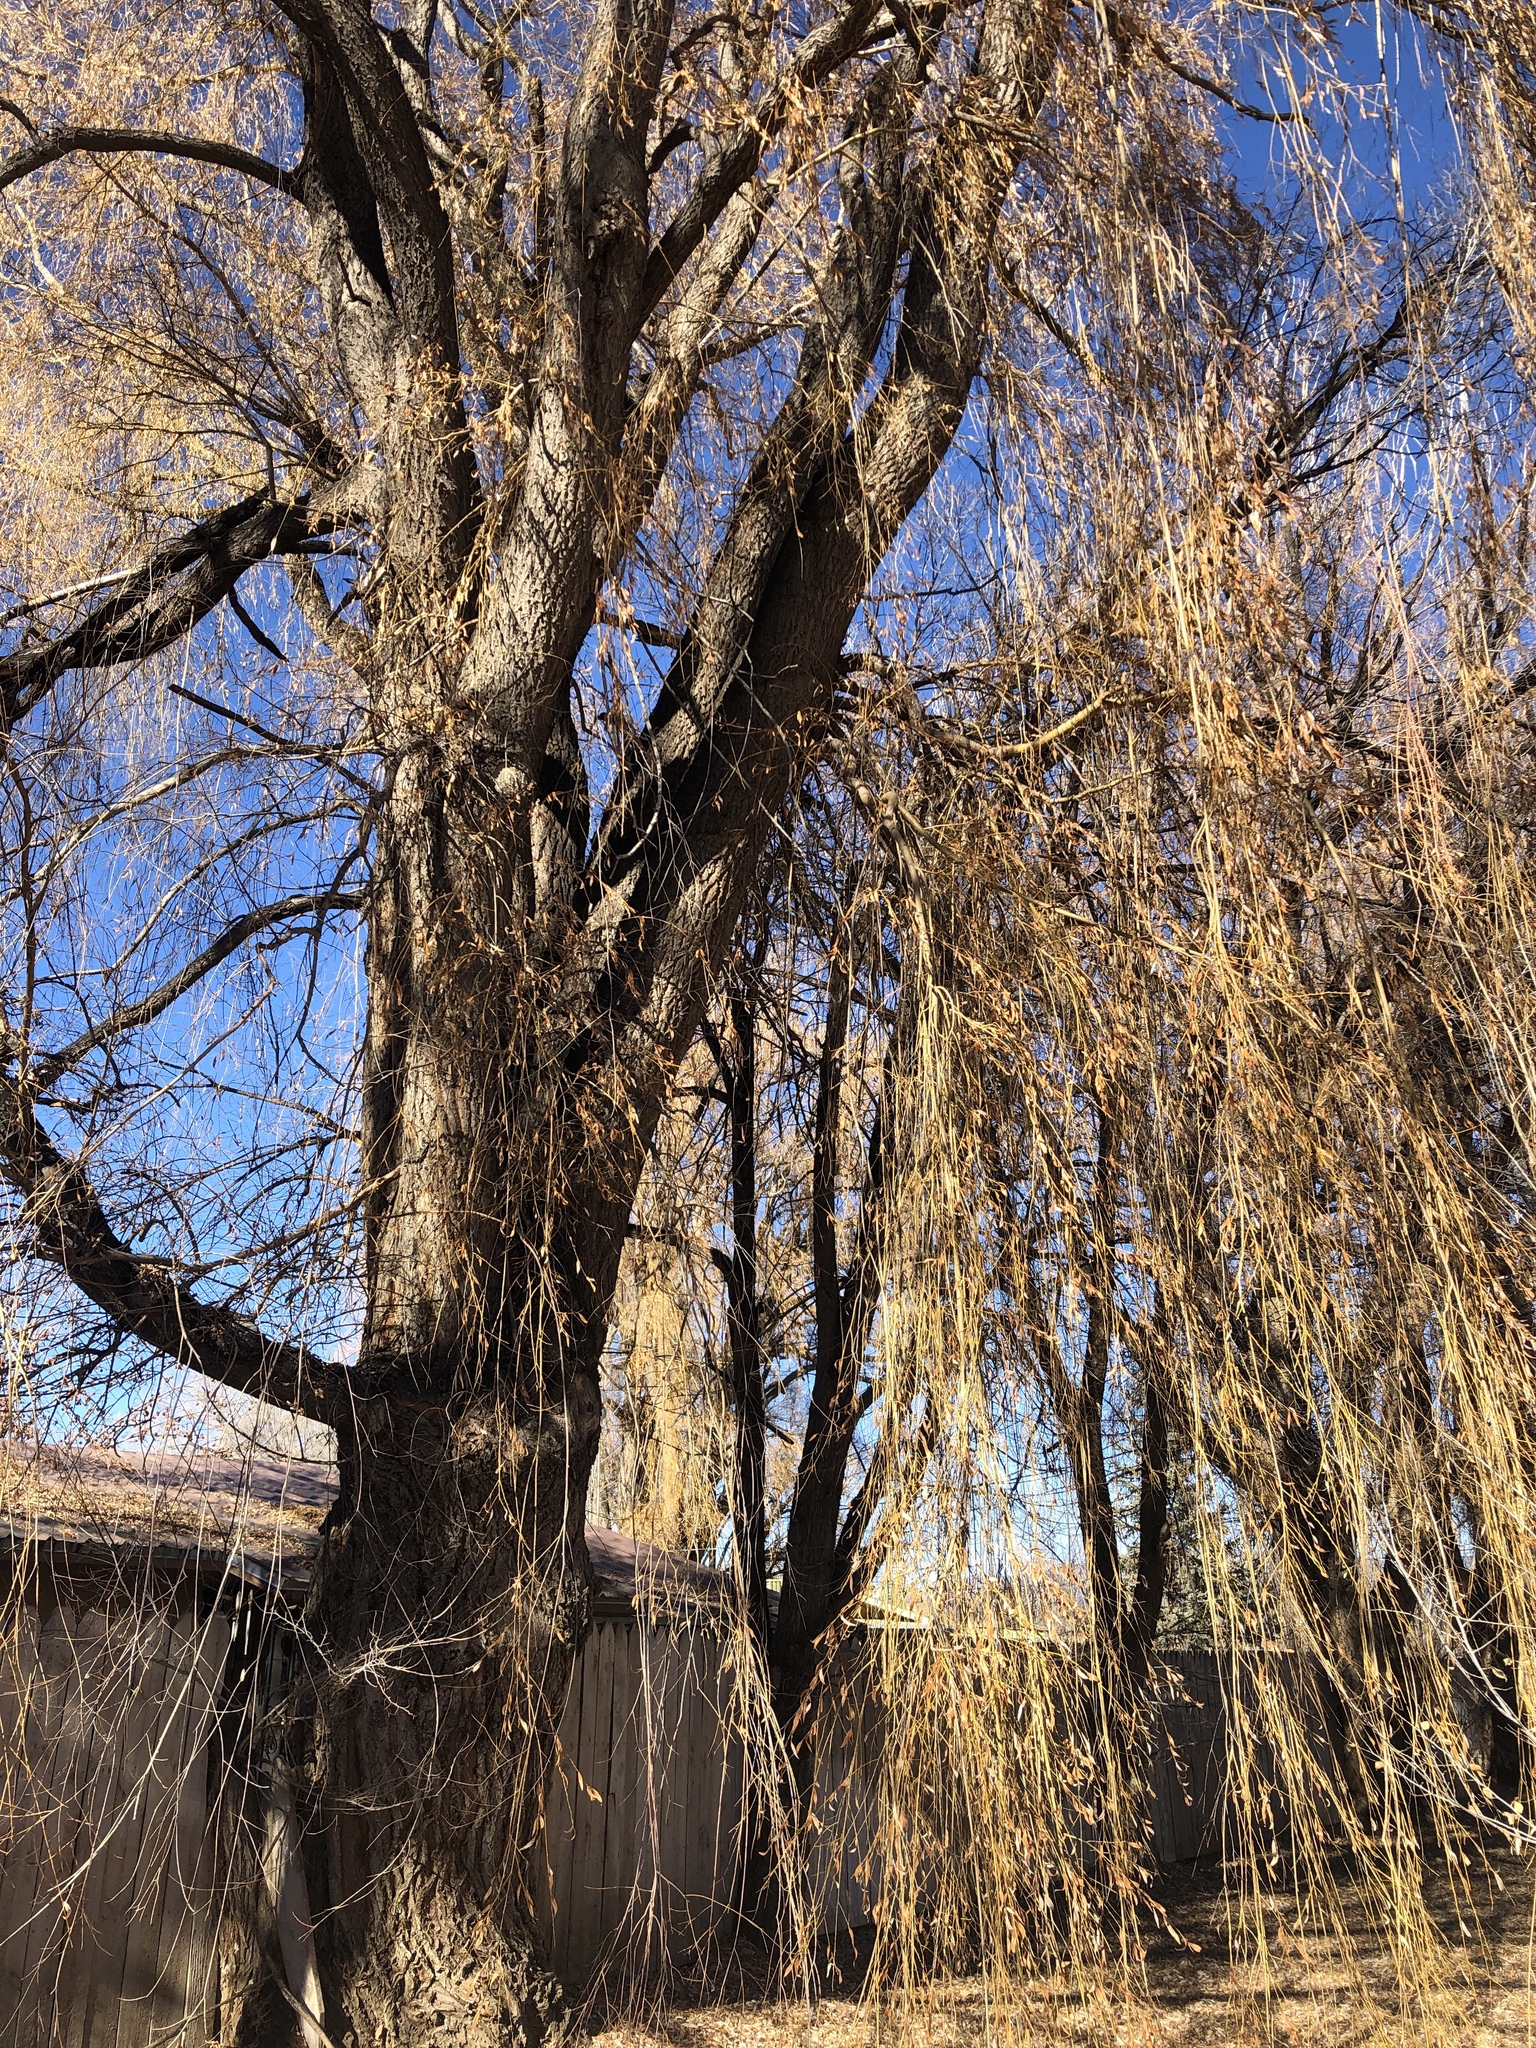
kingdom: Plantae
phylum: Tracheophyta
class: Magnoliopsida
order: Malpighiales
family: Salicaceae
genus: Salix
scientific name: Salix babylonica
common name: Weeping willow
